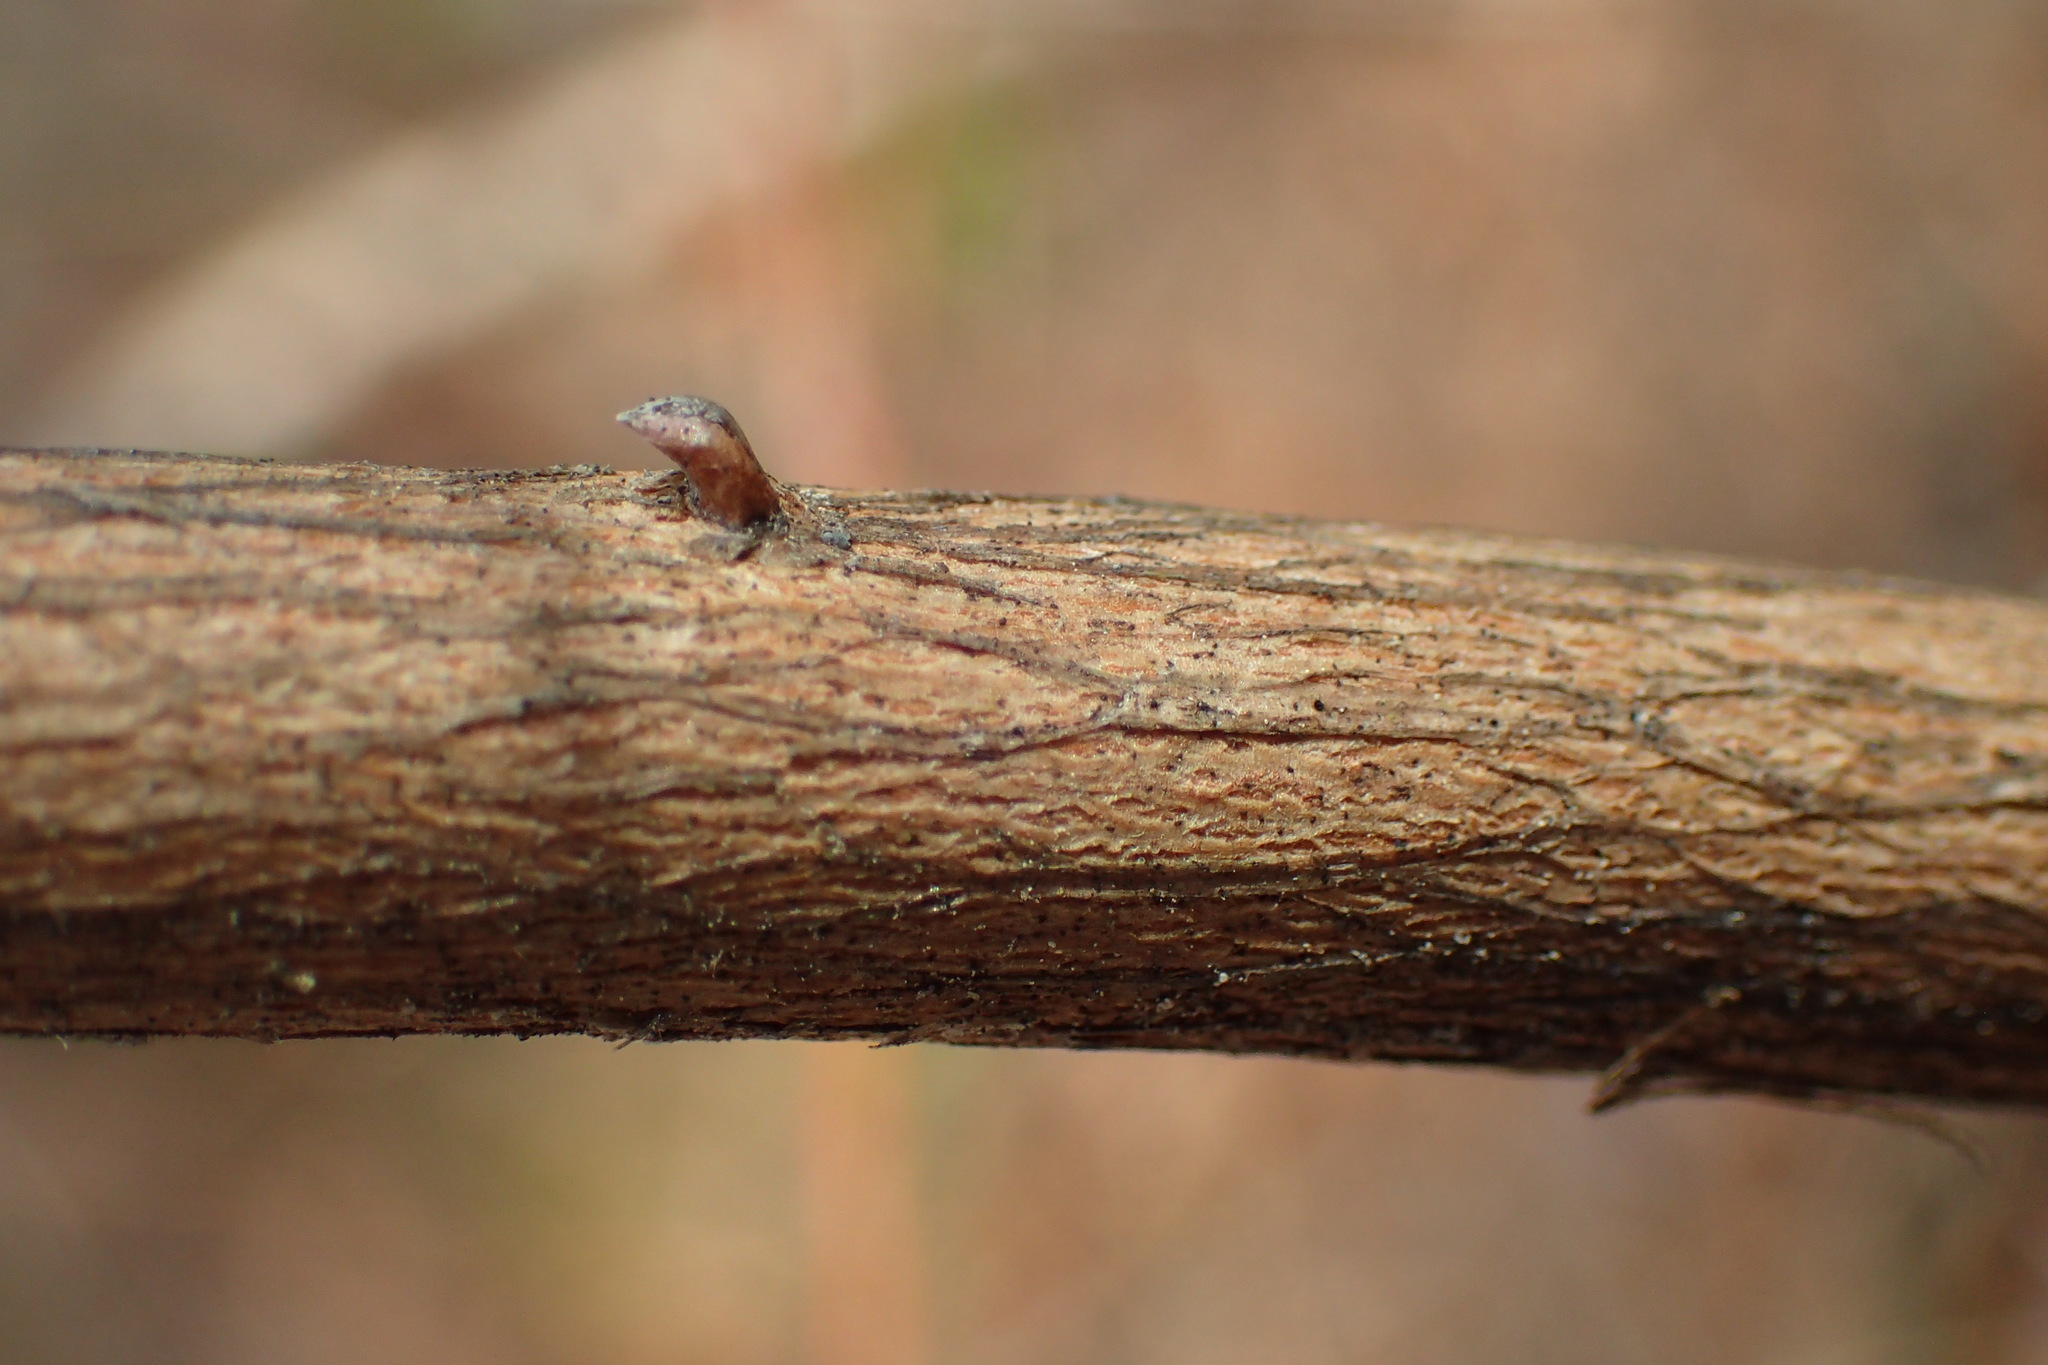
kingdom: Plantae
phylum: Tracheophyta
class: Magnoliopsida
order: Ericales
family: Ericaceae
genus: Lyonia
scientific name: Lyonia ligustrina
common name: Maleberry
